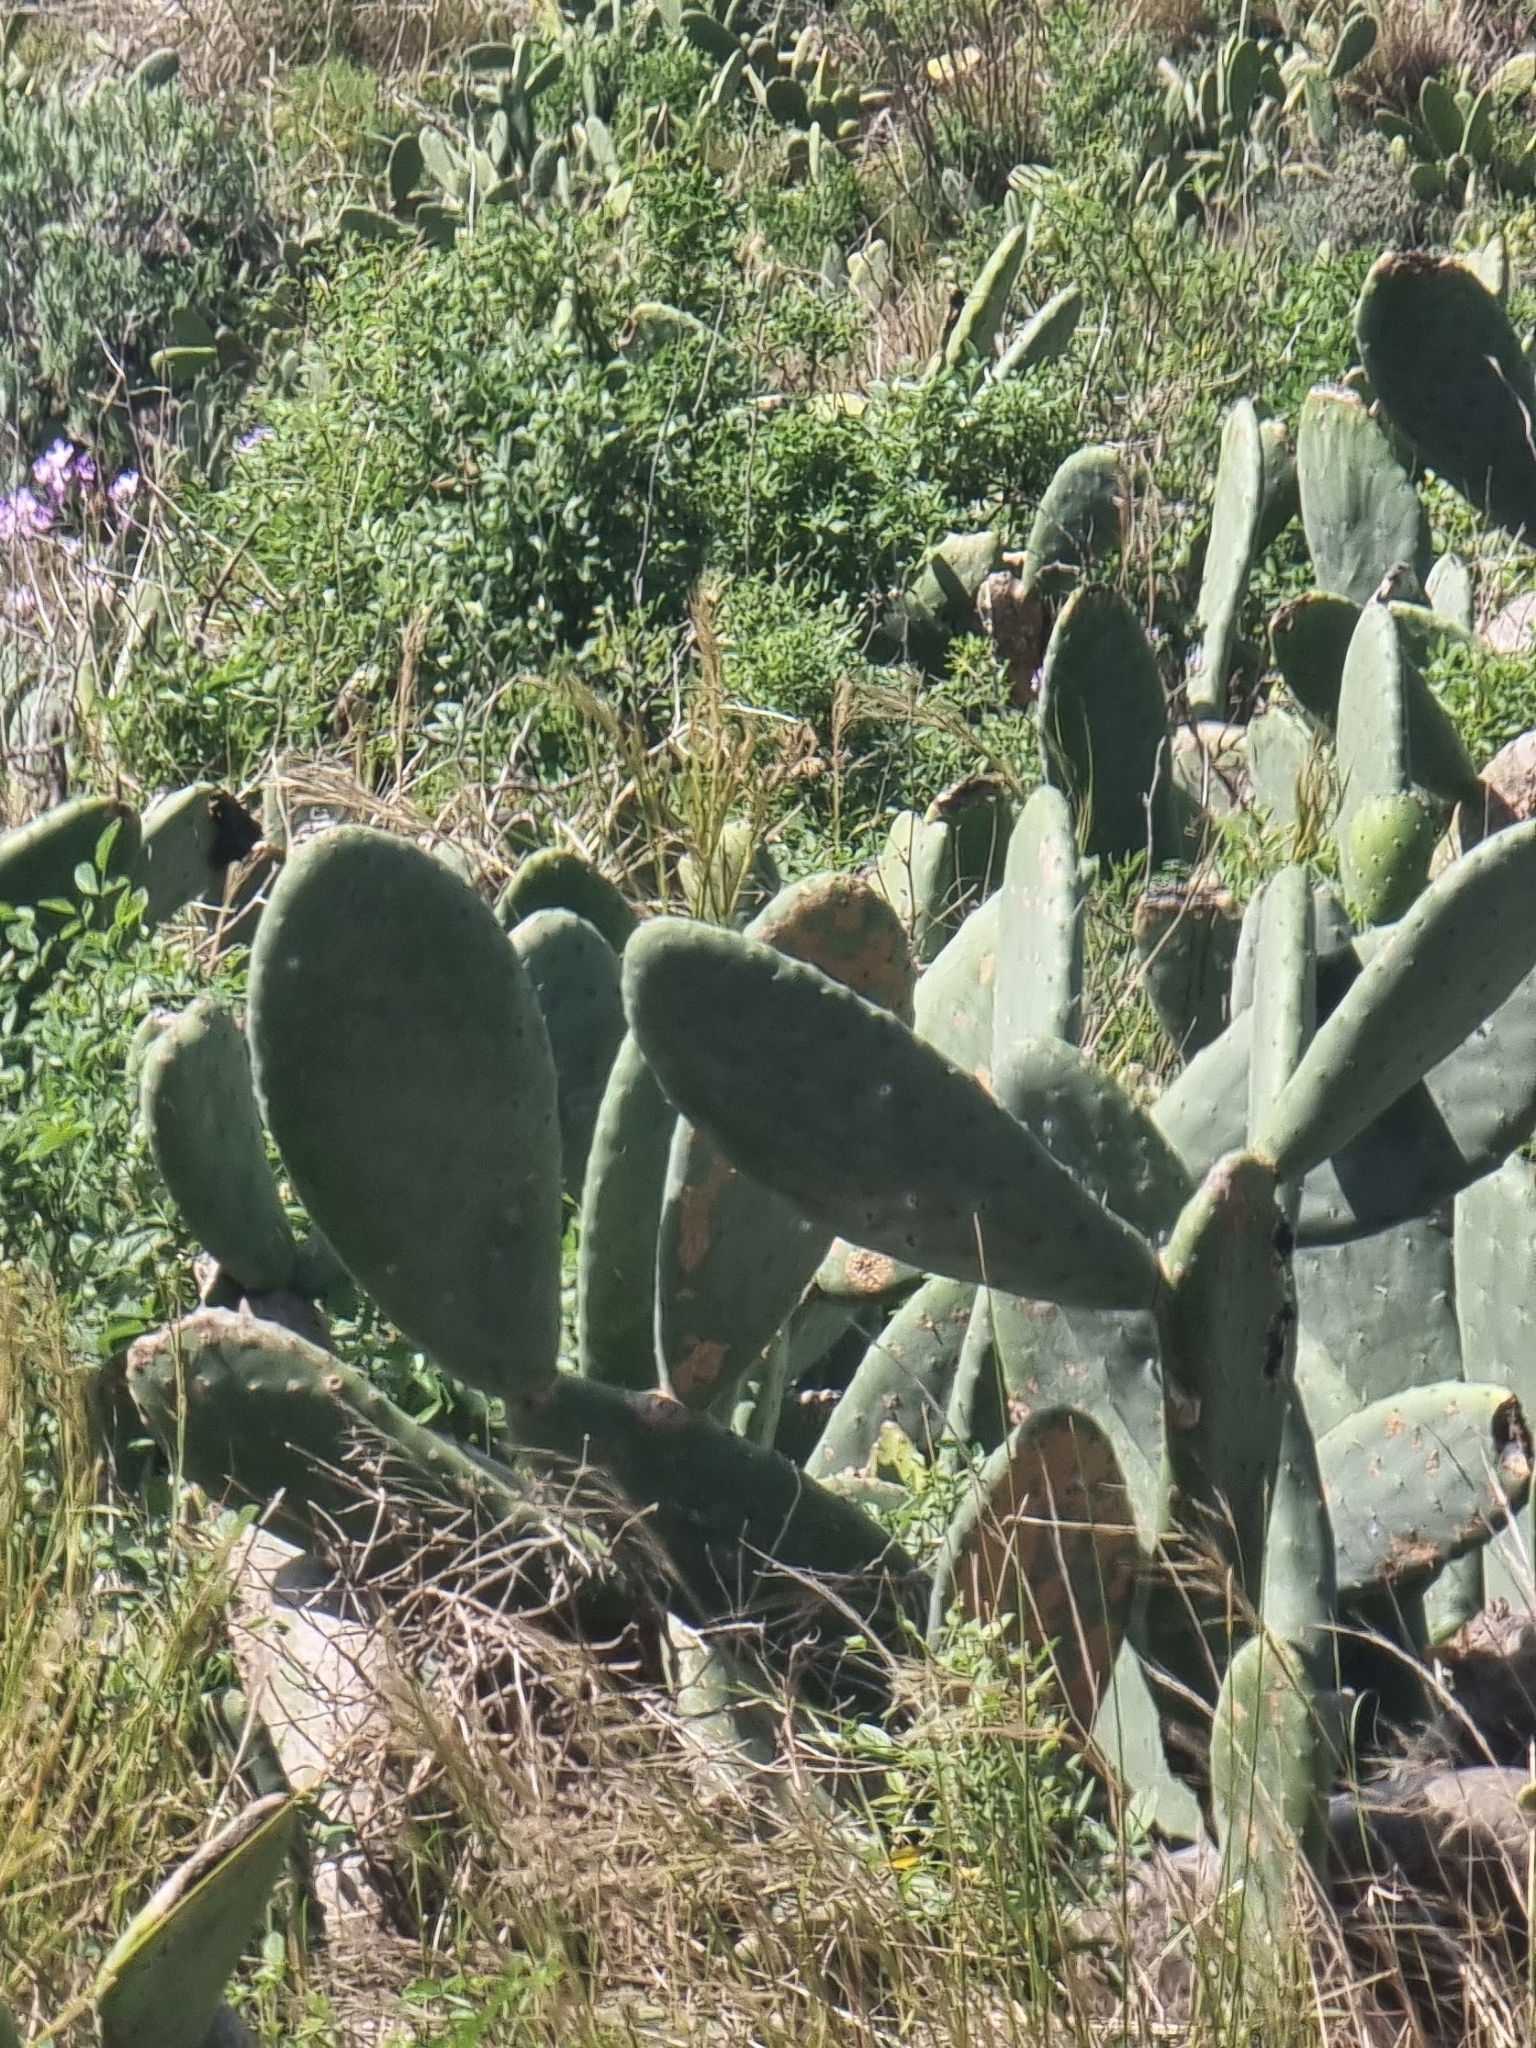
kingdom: Plantae
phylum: Tracheophyta
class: Magnoliopsida
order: Caryophyllales
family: Cactaceae
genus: Opuntia
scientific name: Opuntia ficus-indica
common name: Barbary fig
